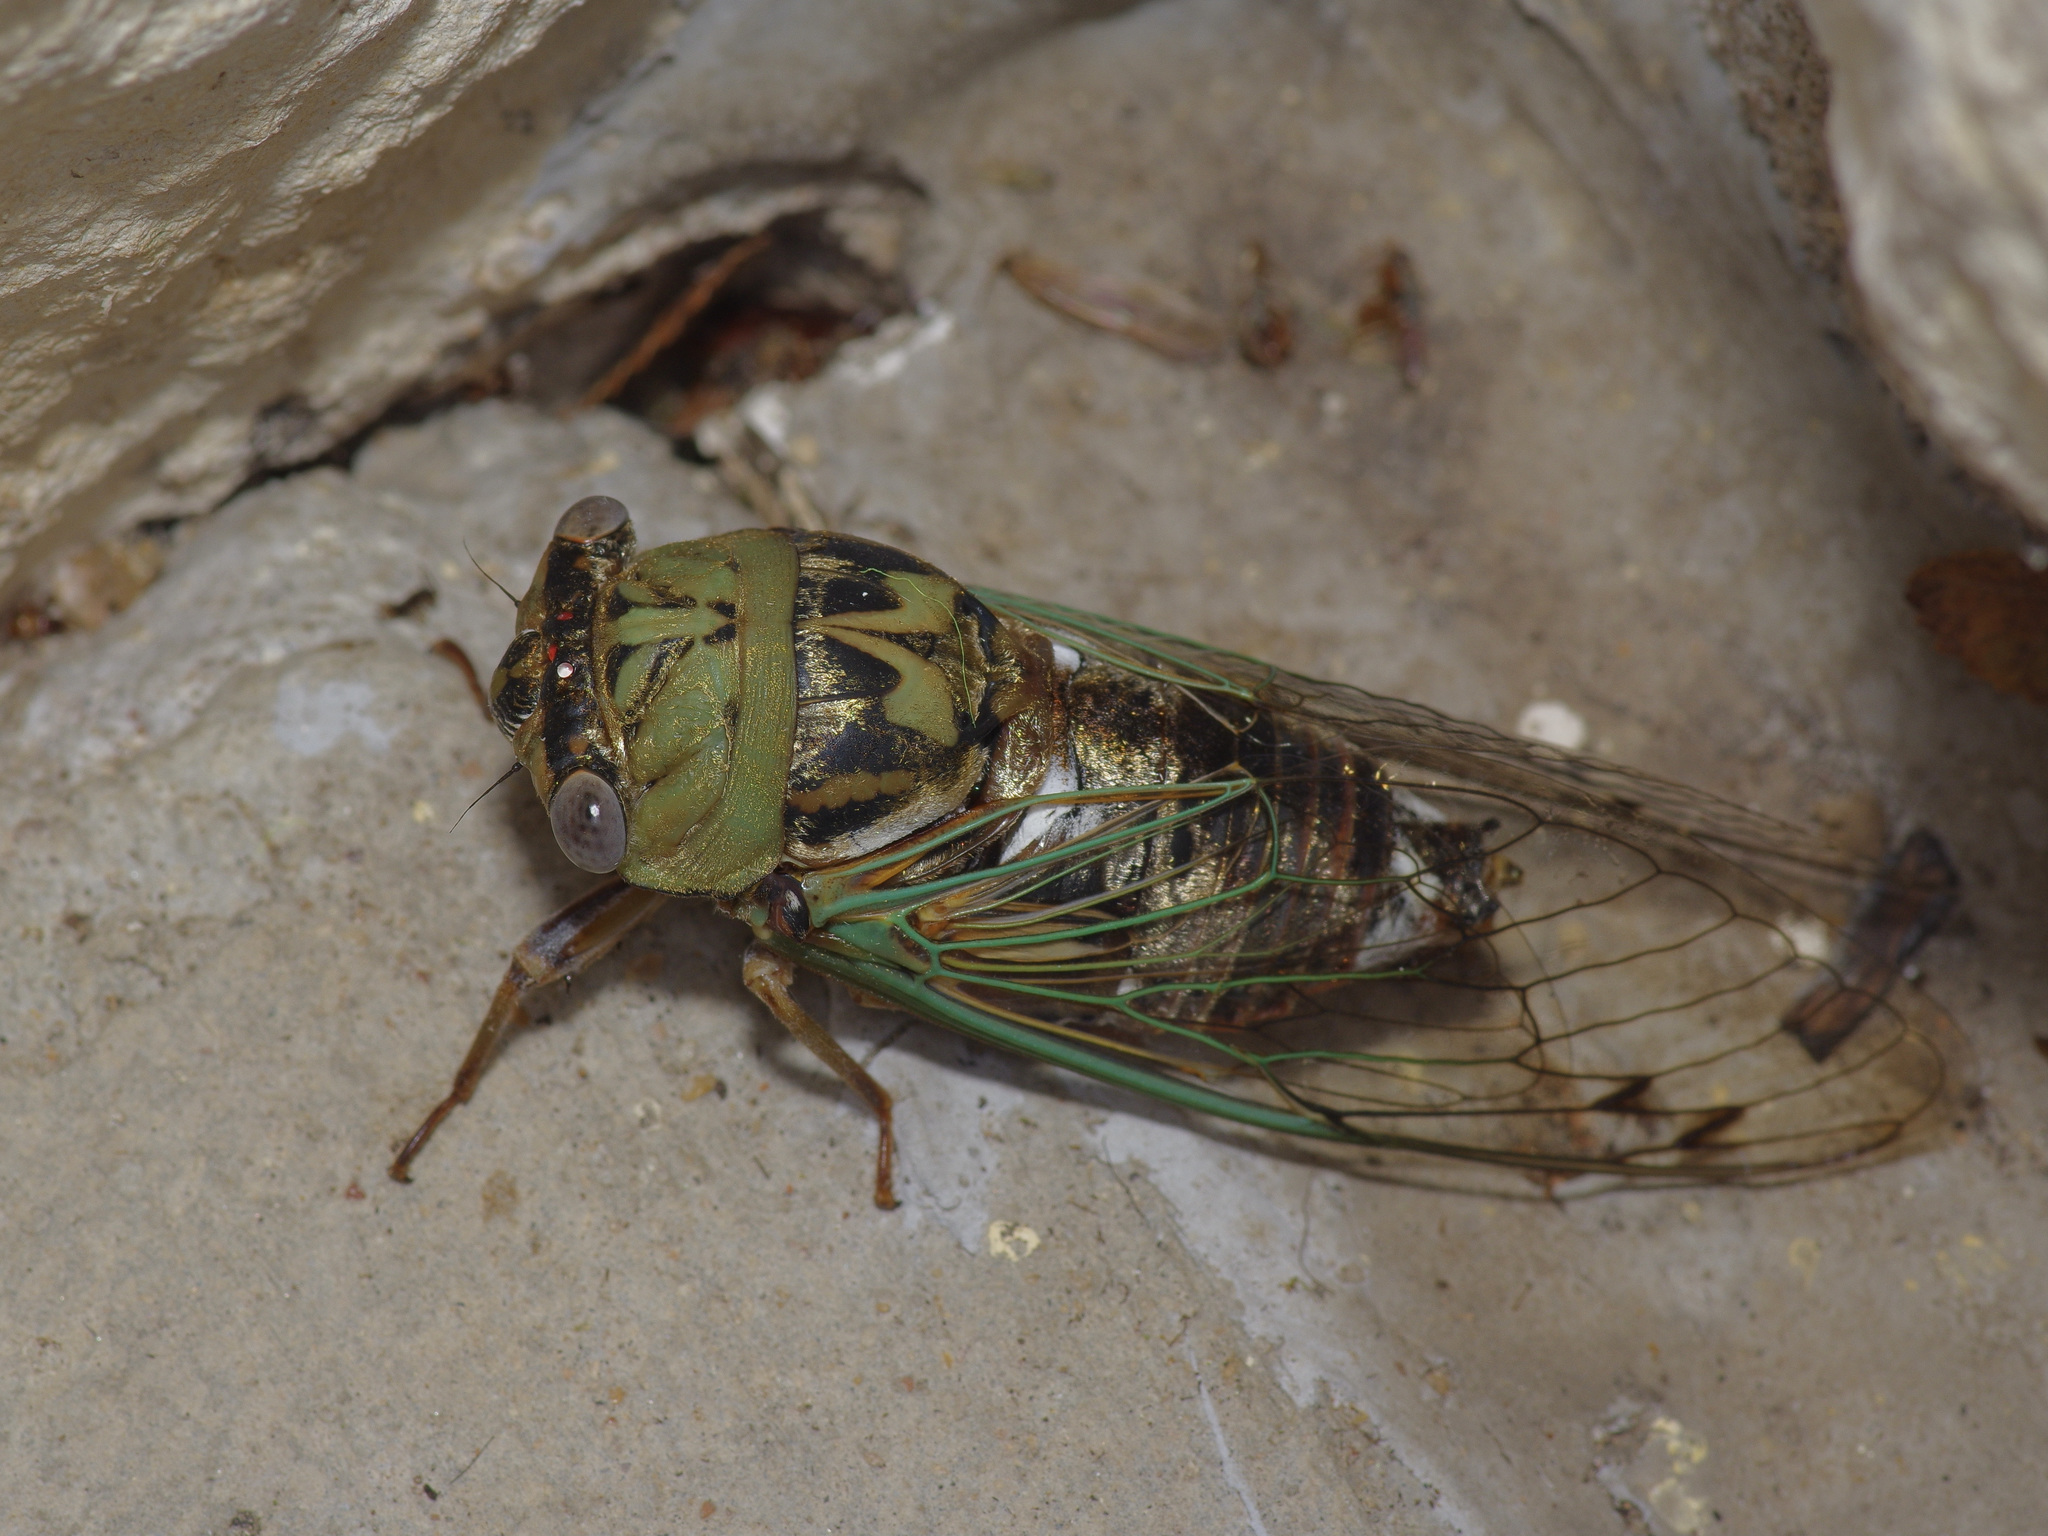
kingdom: Animalia
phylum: Arthropoda
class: Insecta
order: Hemiptera
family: Cicadidae
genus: Megatibicen
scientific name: Megatibicen resh
